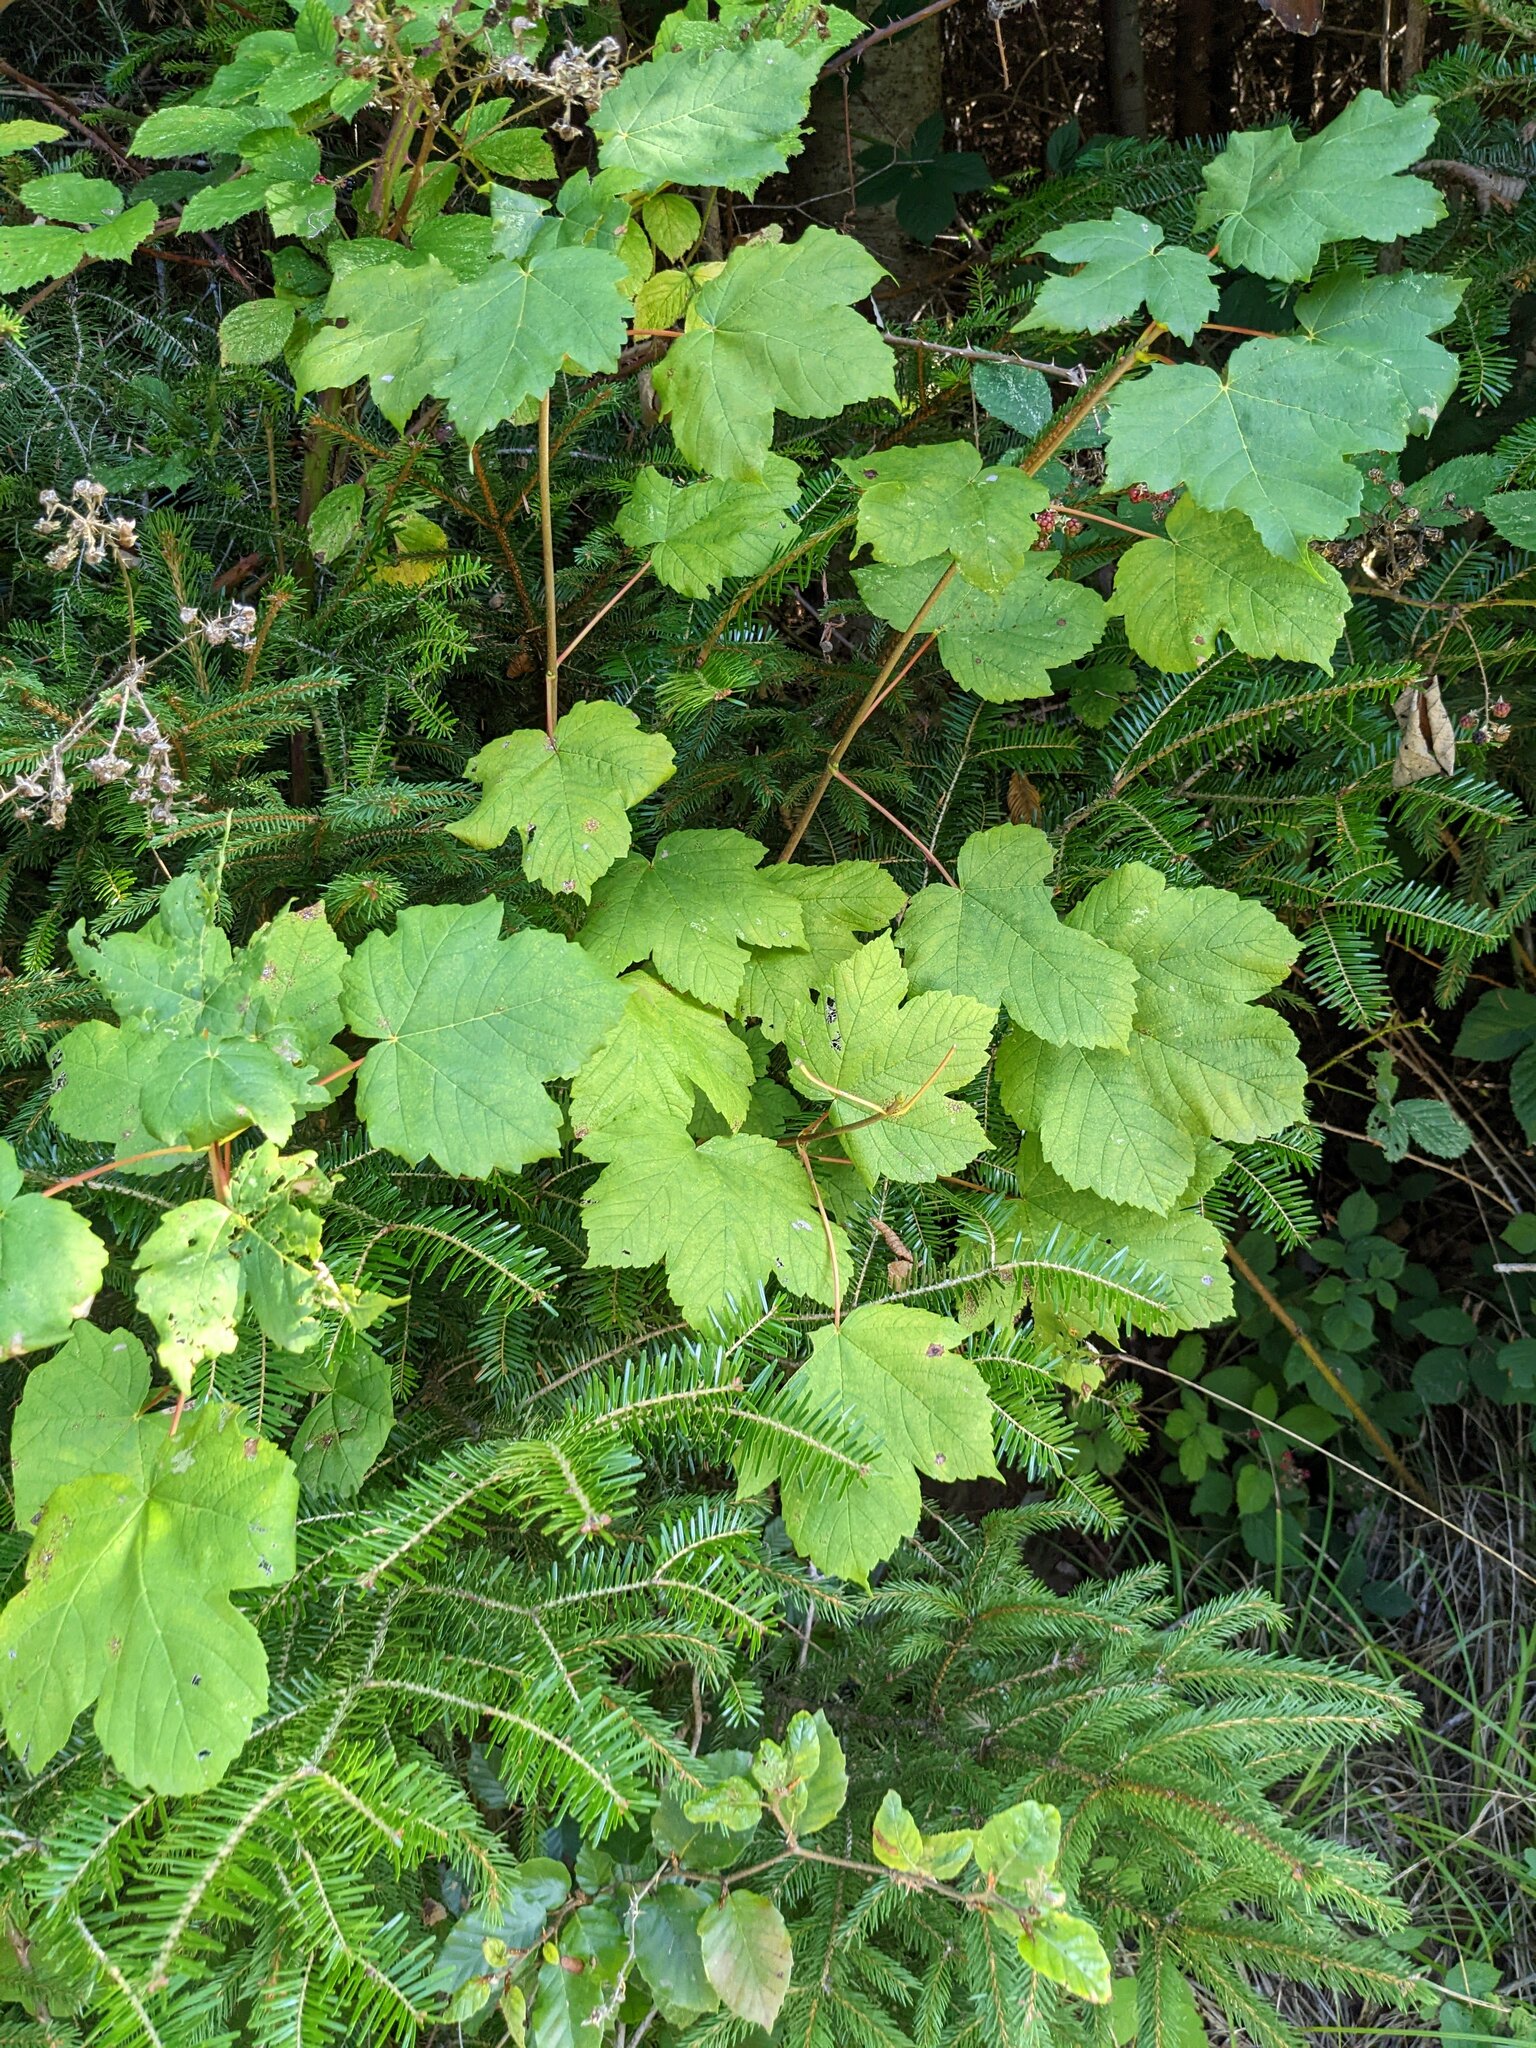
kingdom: Plantae
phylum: Tracheophyta
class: Magnoliopsida
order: Sapindales
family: Sapindaceae
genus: Acer
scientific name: Acer pseudoplatanus
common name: Sycamore
